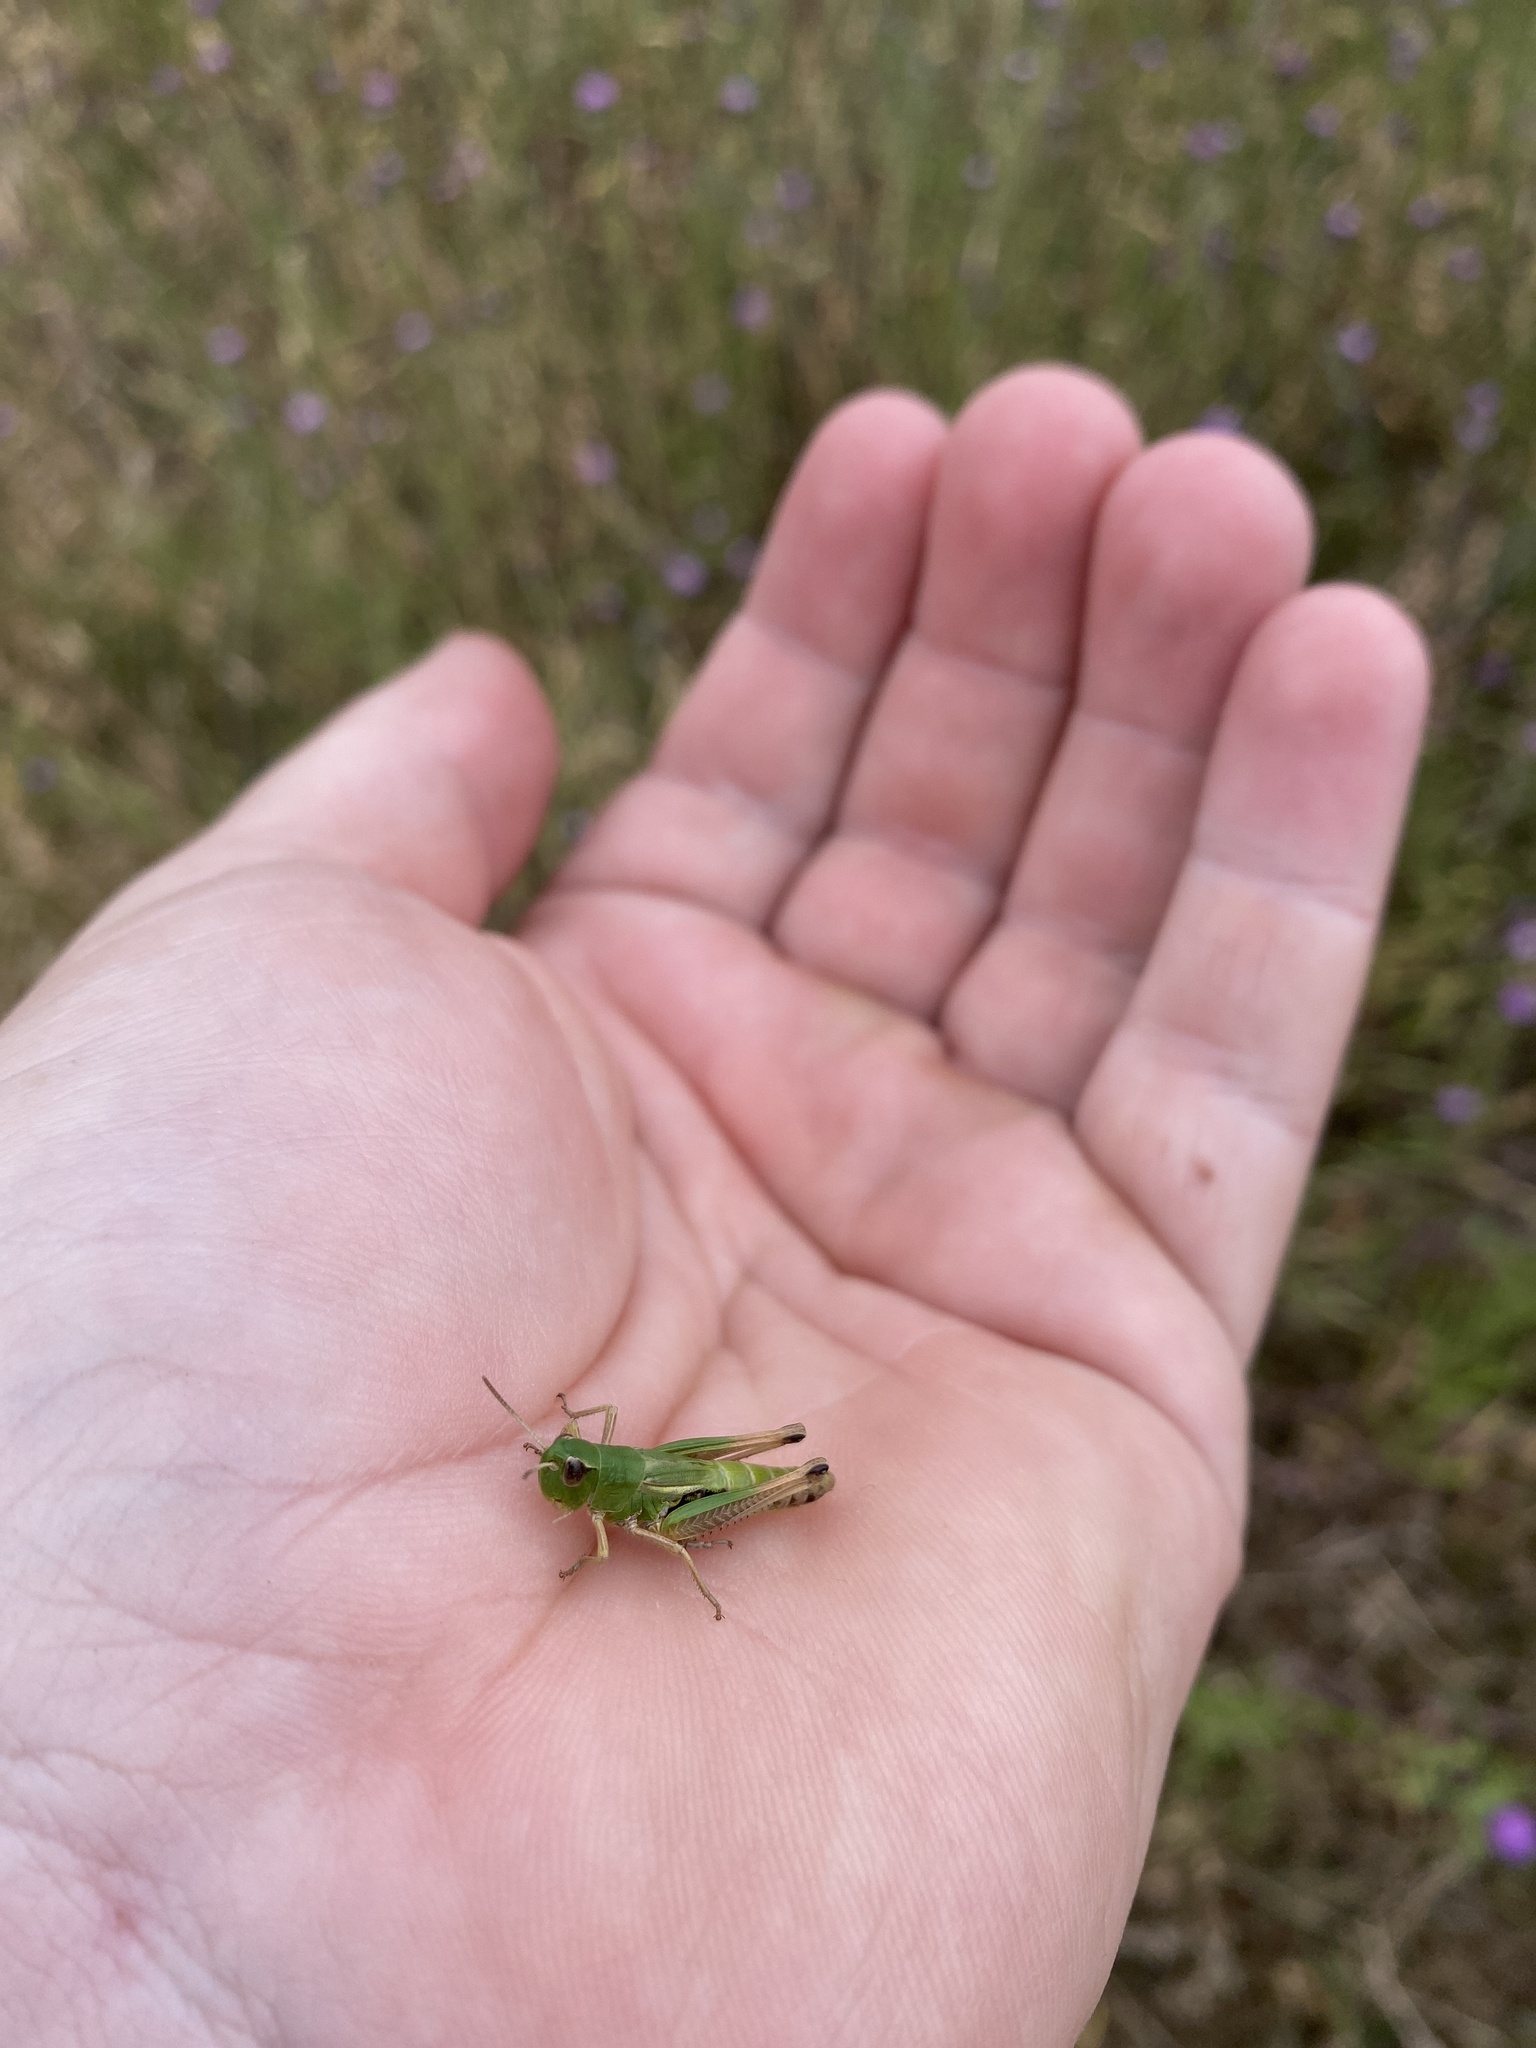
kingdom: Animalia
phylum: Arthropoda
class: Insecta
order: Orthoptera
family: Acrididae
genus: Pseudochorthippus
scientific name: Pseudochorthippus parallelus
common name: Meadow grasshopper
